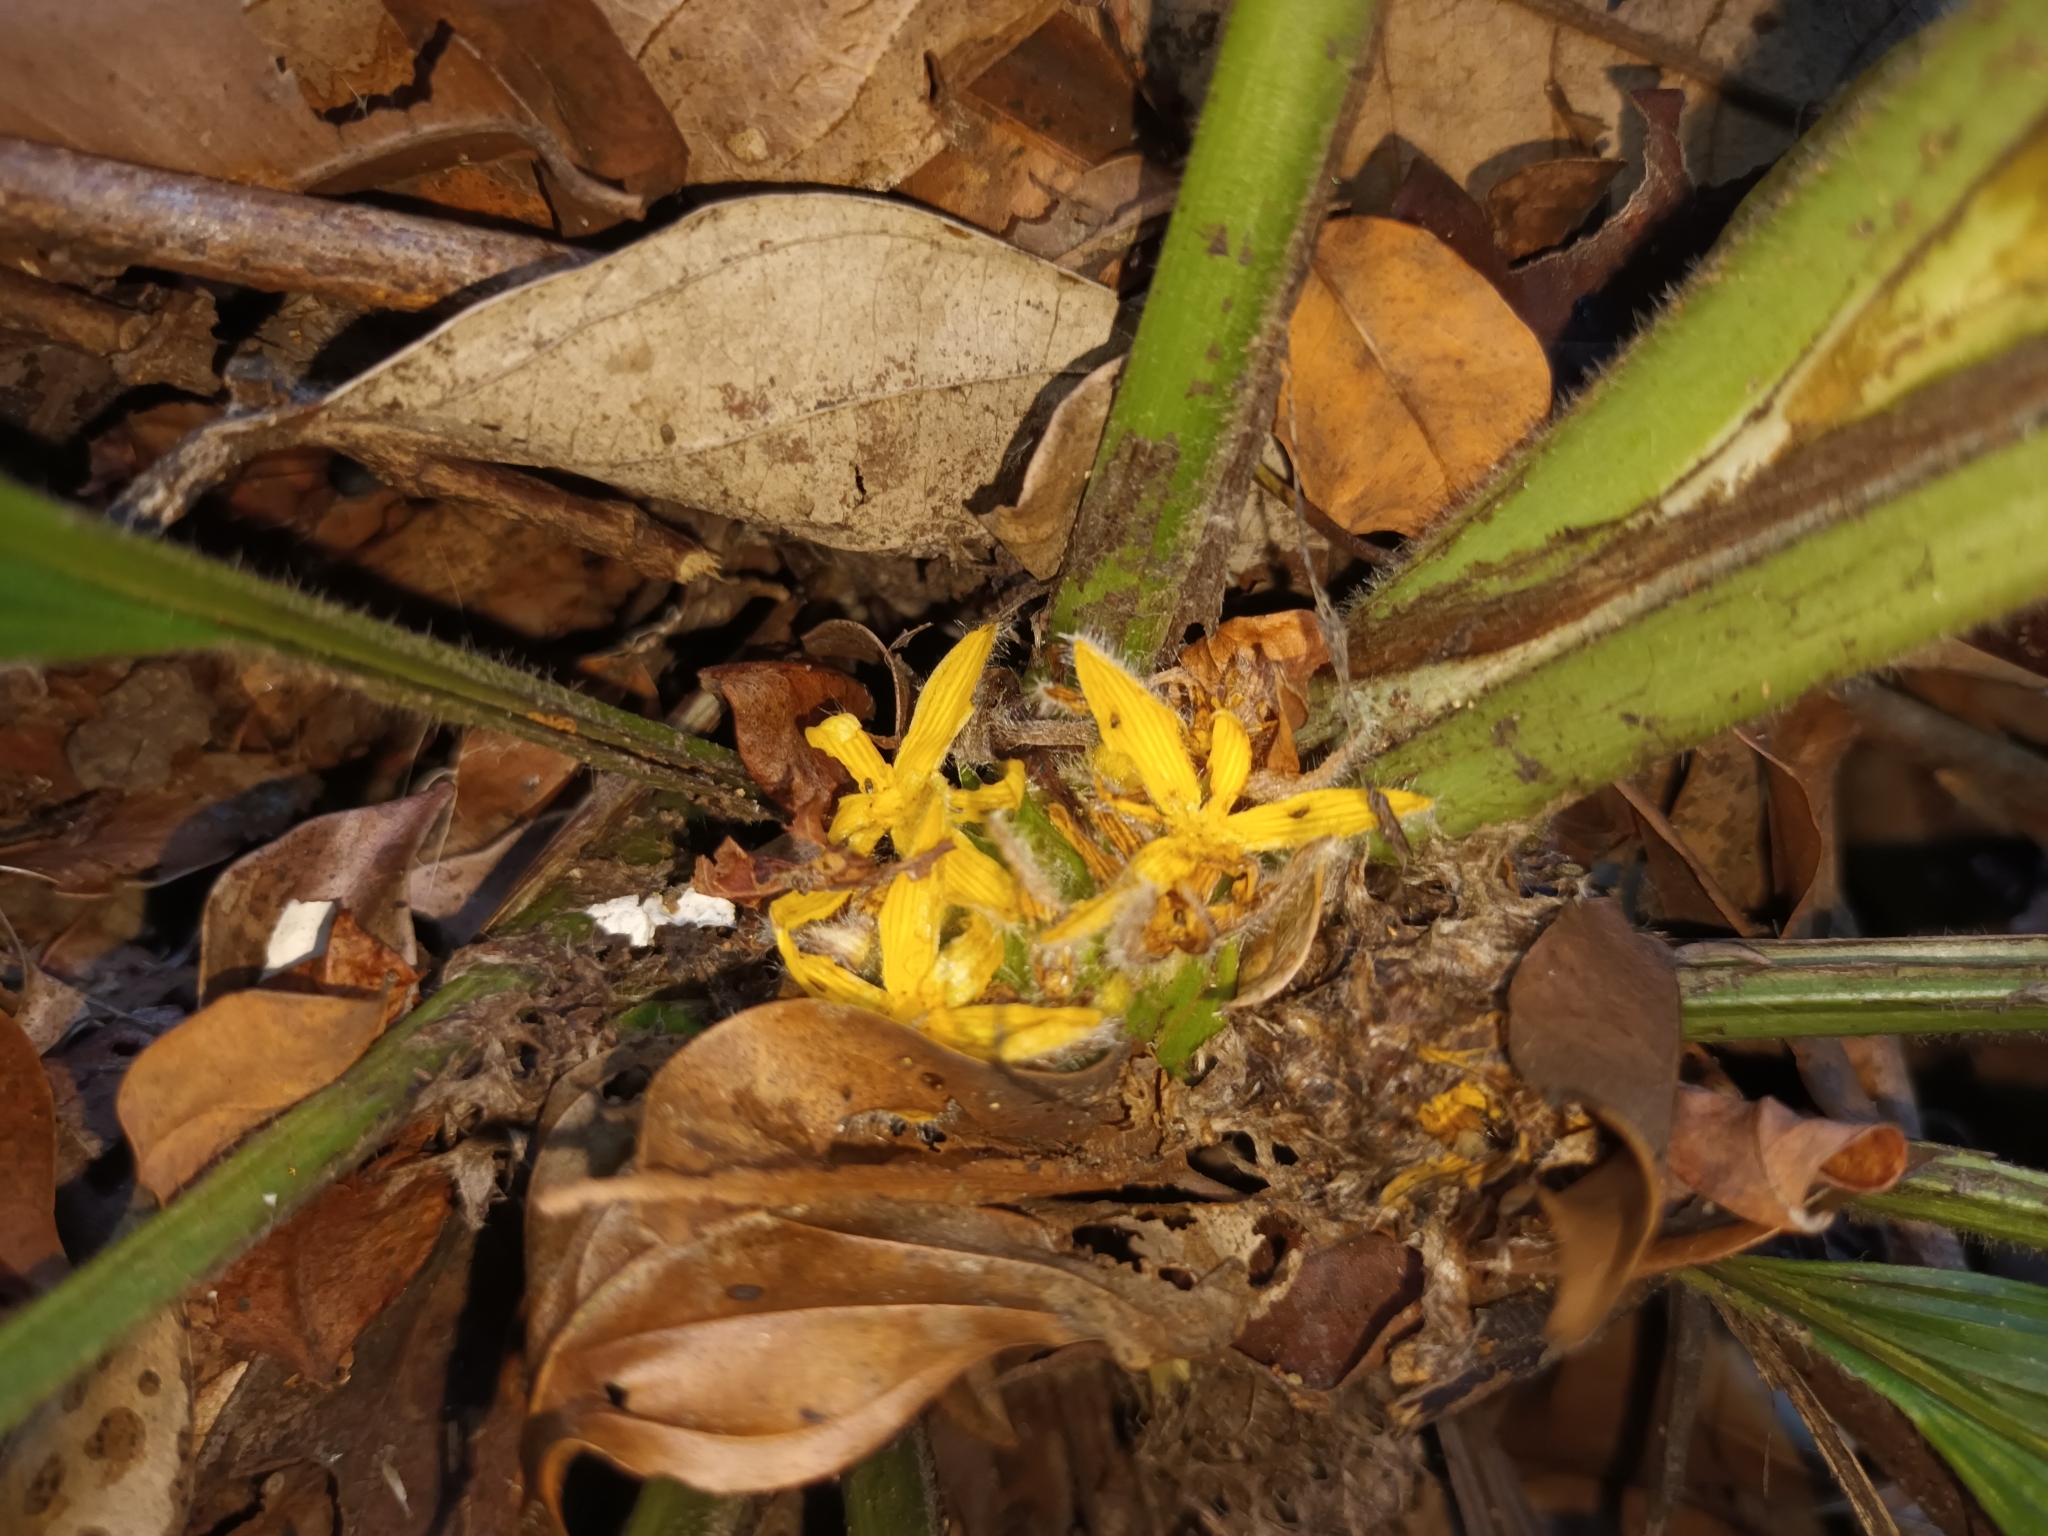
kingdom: Plantae
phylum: Tracheophyta
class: Liliopsida
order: Asparagales
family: Hypoxidaceae
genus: Curculigo
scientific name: Curculigo latifolia
